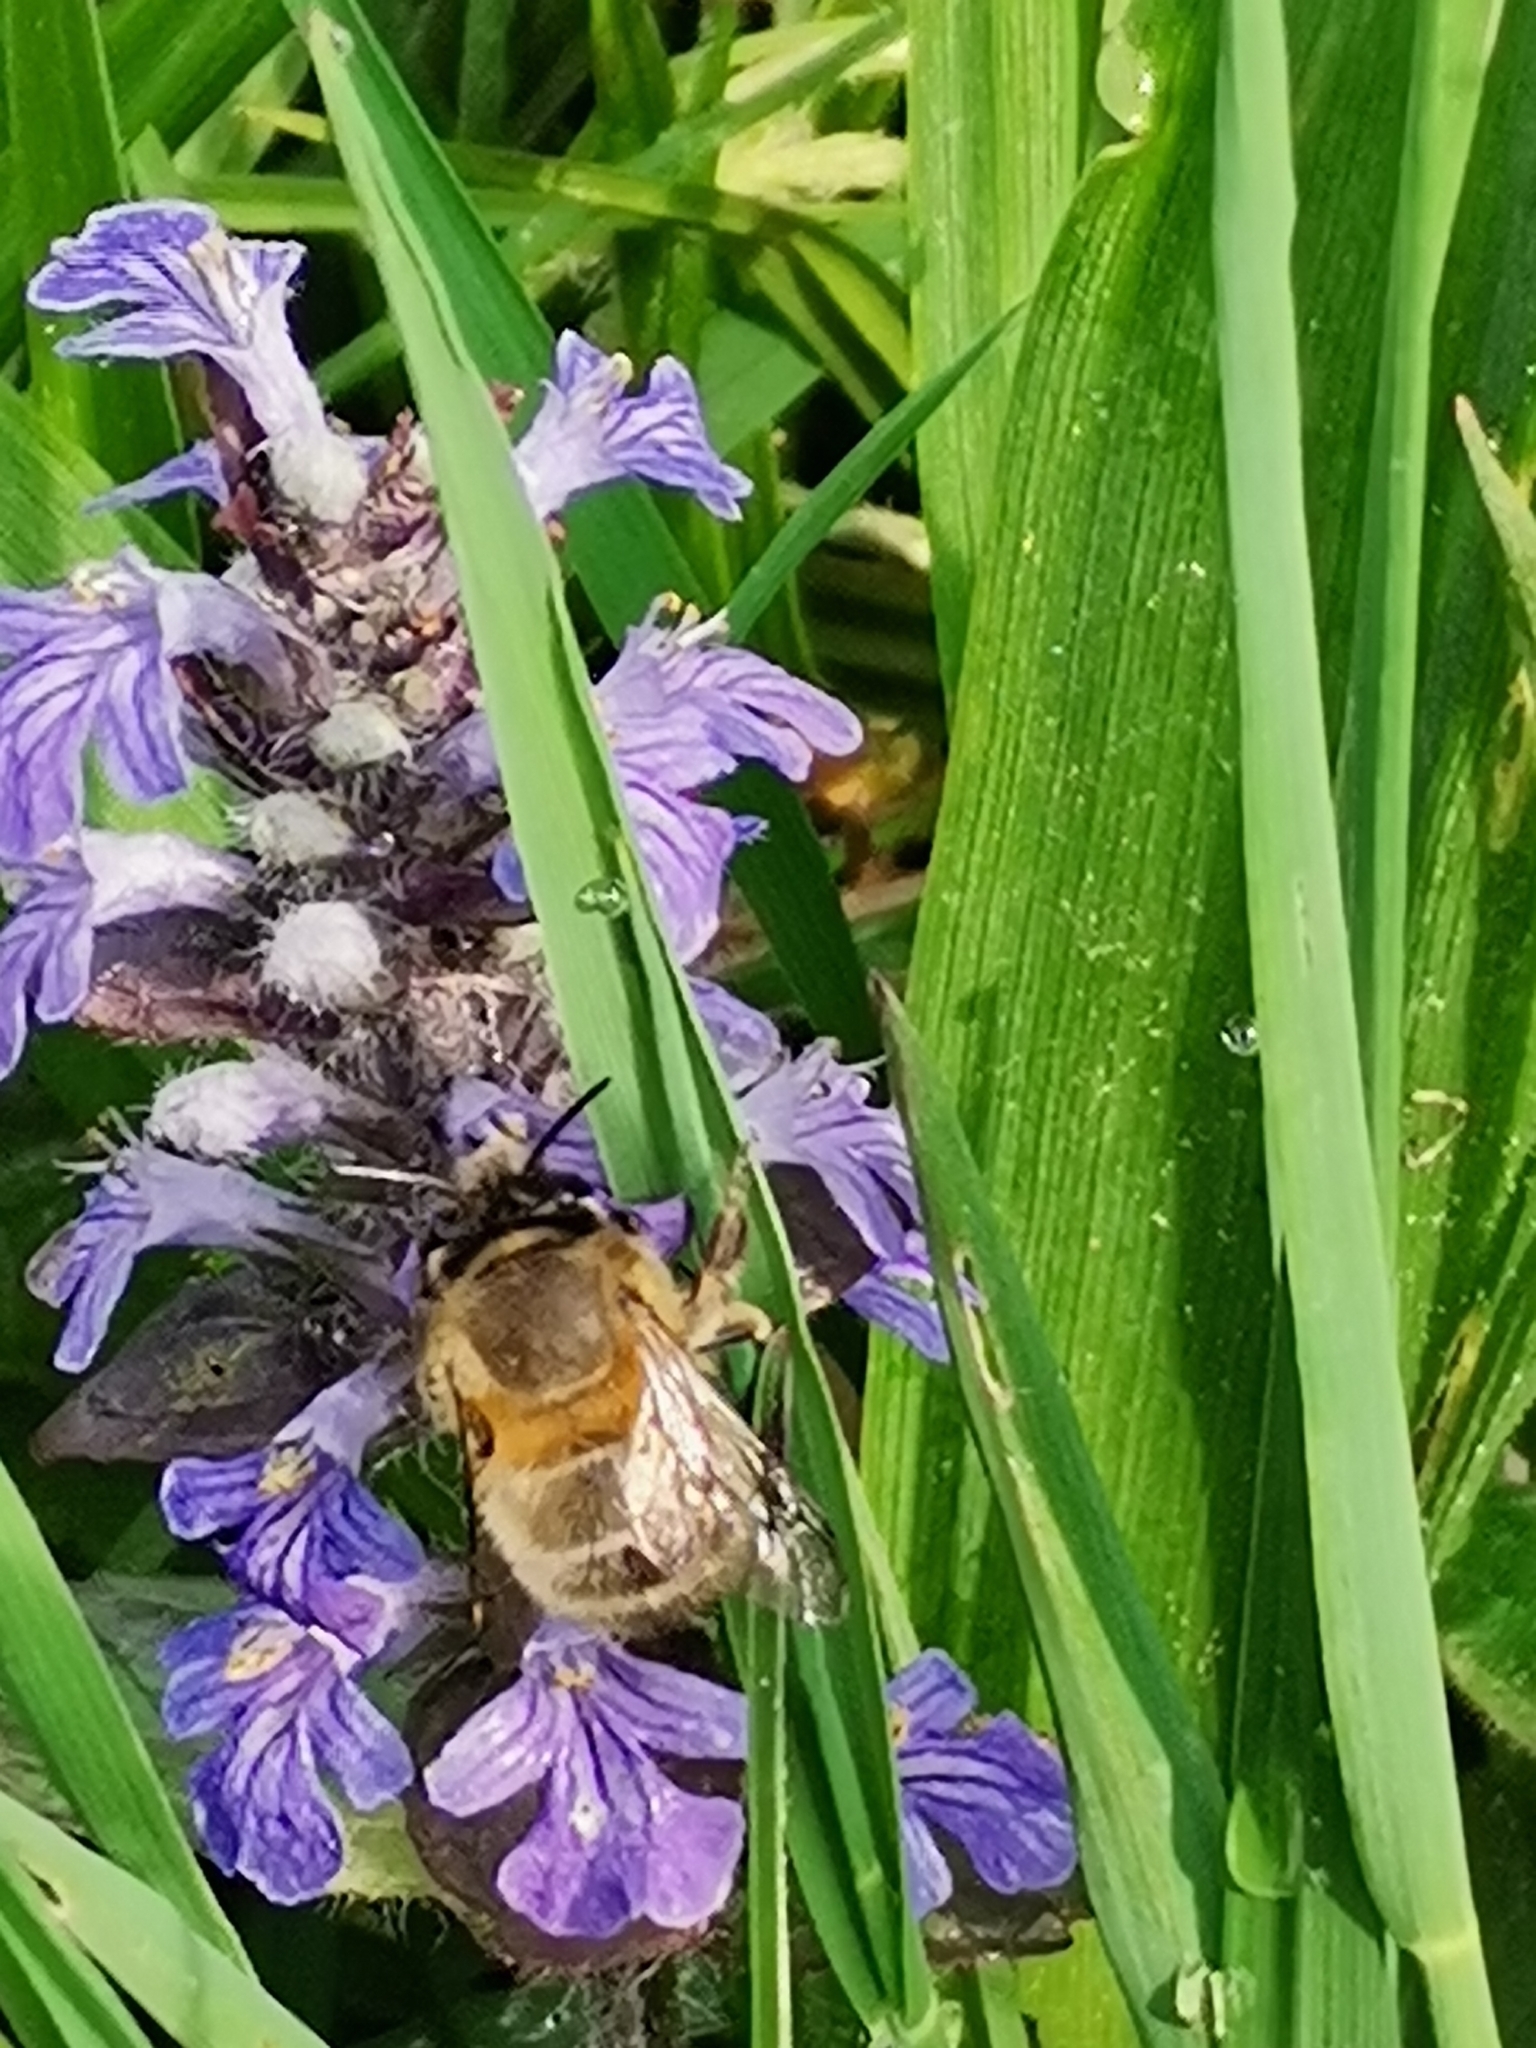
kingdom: Animalia
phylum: Arthropoda
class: Insecta
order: Hymenoptera
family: Apidae
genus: Anthophora
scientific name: Anthophora plumipes
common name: Hairy-footed flower bee
